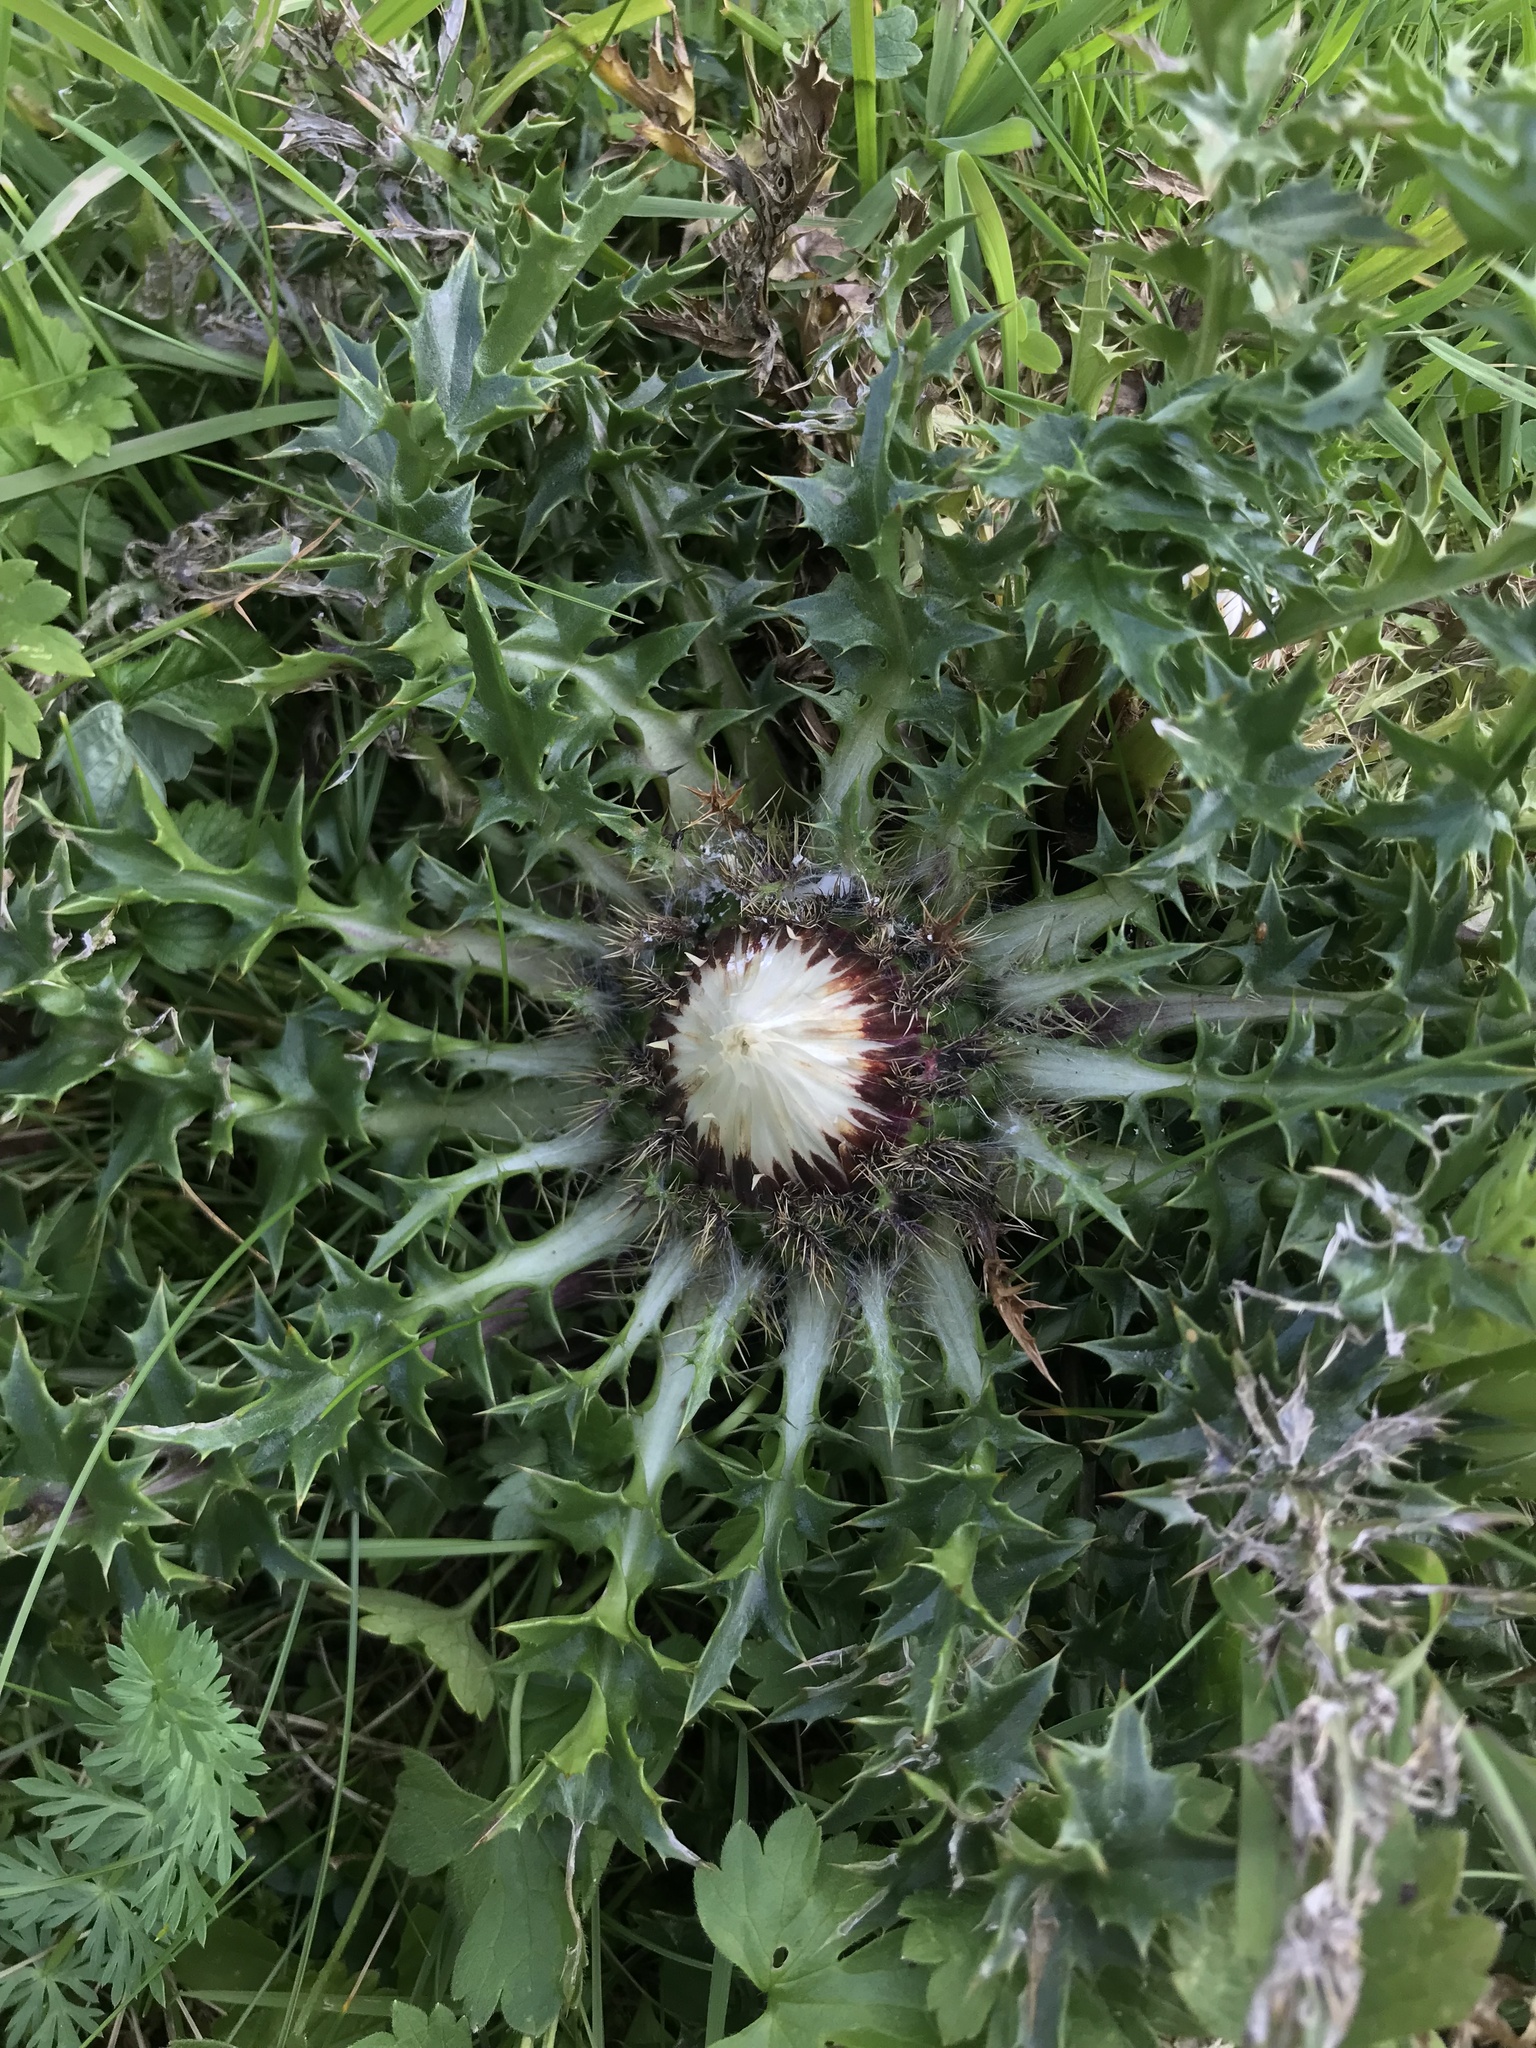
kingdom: Plantae
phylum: Tracheophyta
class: Magnoliopsida
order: Asterales
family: Asteraceae
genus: Carlina
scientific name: Carlina acaulis
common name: Stemless carline thistle
